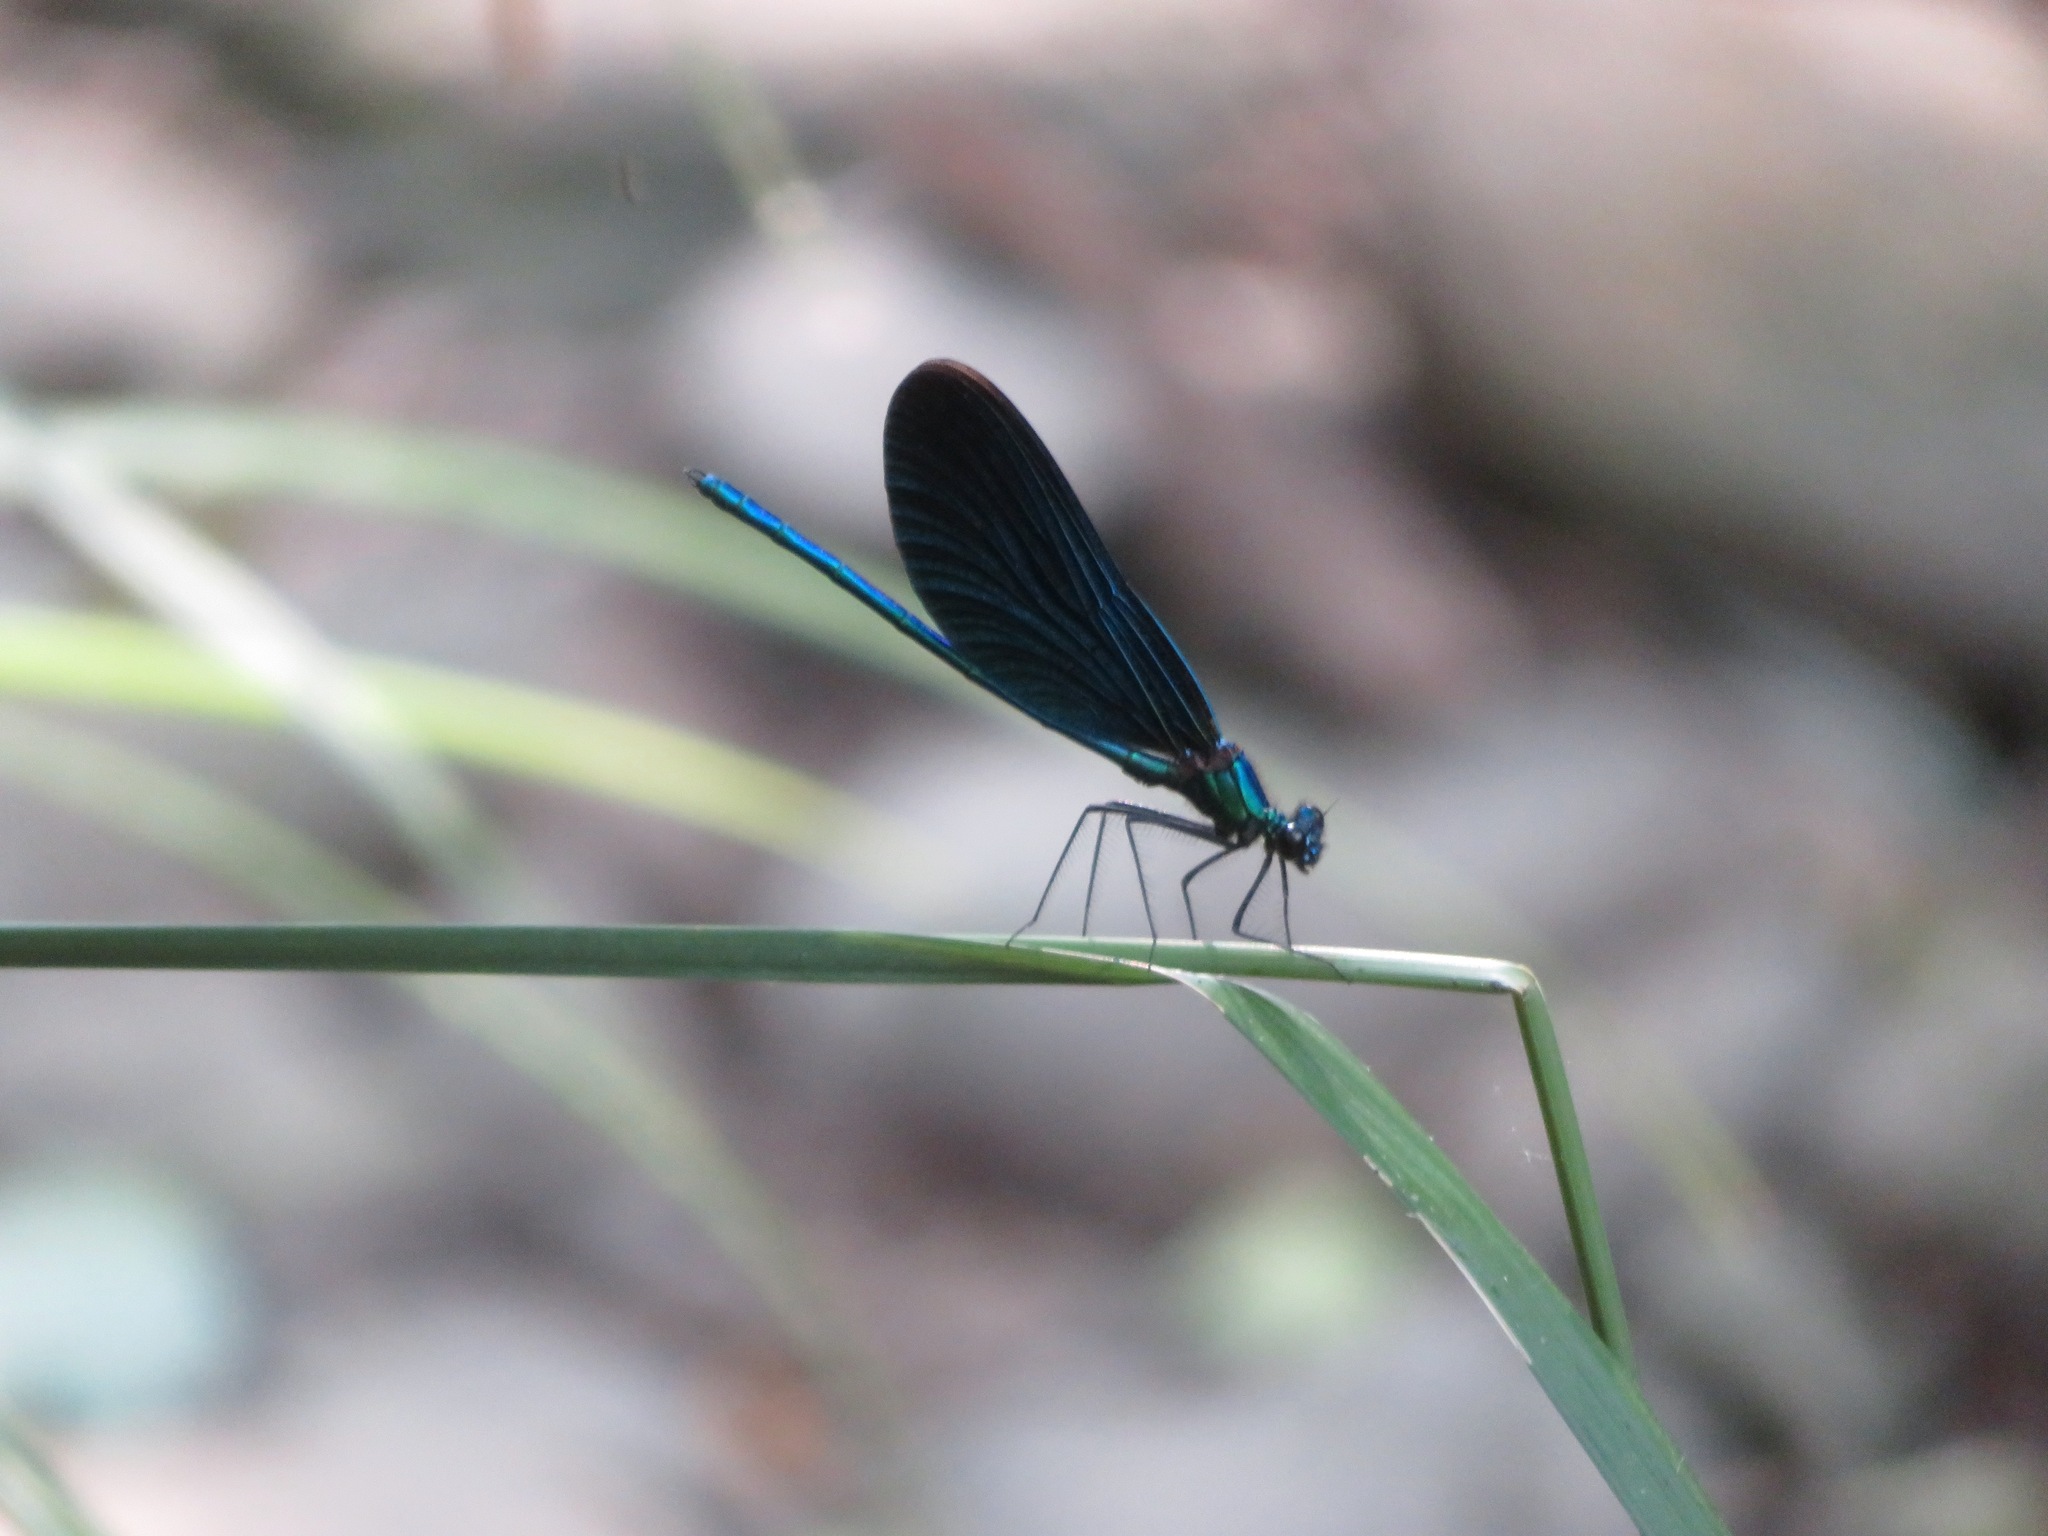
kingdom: Animalia
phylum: Arthropoda
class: Insecta
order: Odonata
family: Calopterygidae
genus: Calopteryx
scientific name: Calopteryx virgo
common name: Beautiful demoiselle
